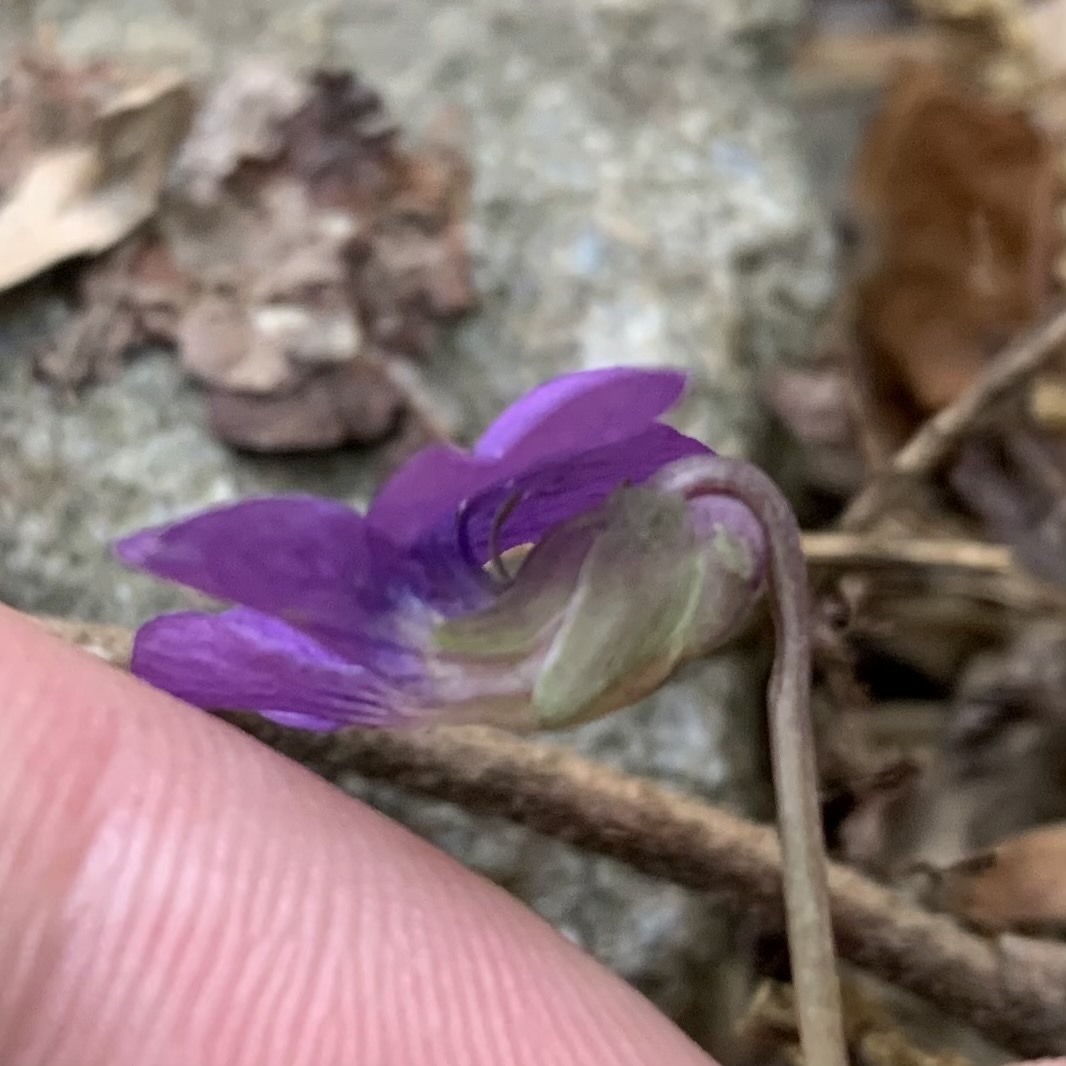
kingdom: Plantae
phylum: Tracheophyta
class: Magnoliopsida
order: Malpighiales
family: Violaceae
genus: Viola
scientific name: Viola sororia
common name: Dooryard violet
